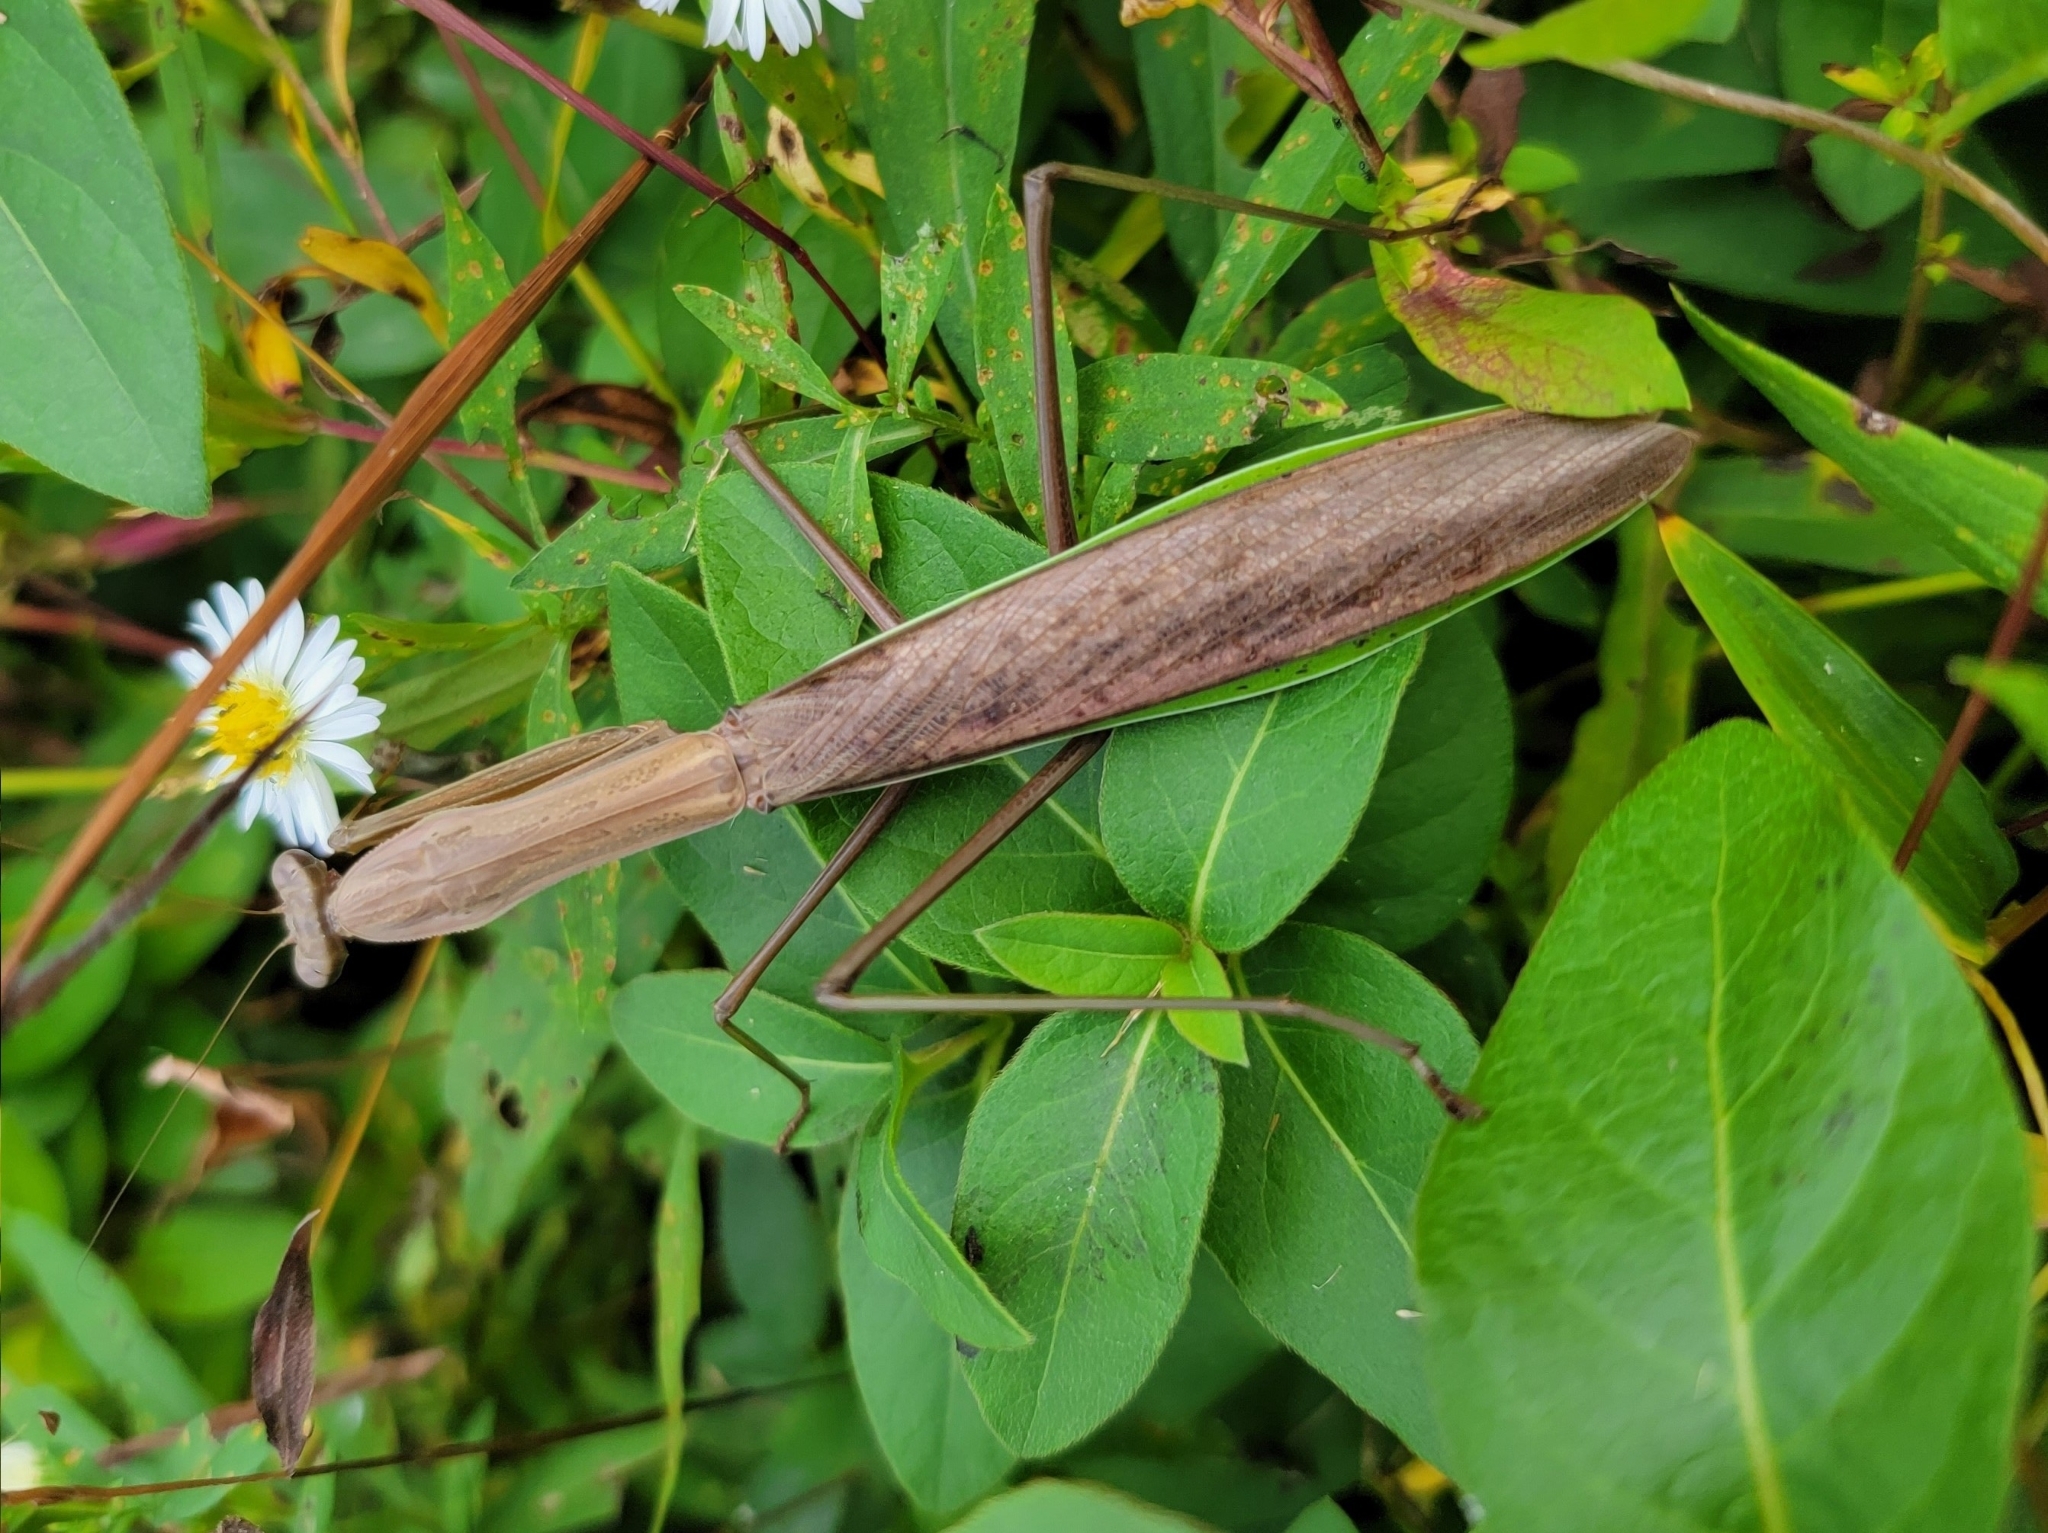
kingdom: Animalia
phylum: Arthropoda
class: Insecta
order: Mantodea
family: Mantidae
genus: Tenodera
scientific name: Tenodera sinensis
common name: Chinese mantis
